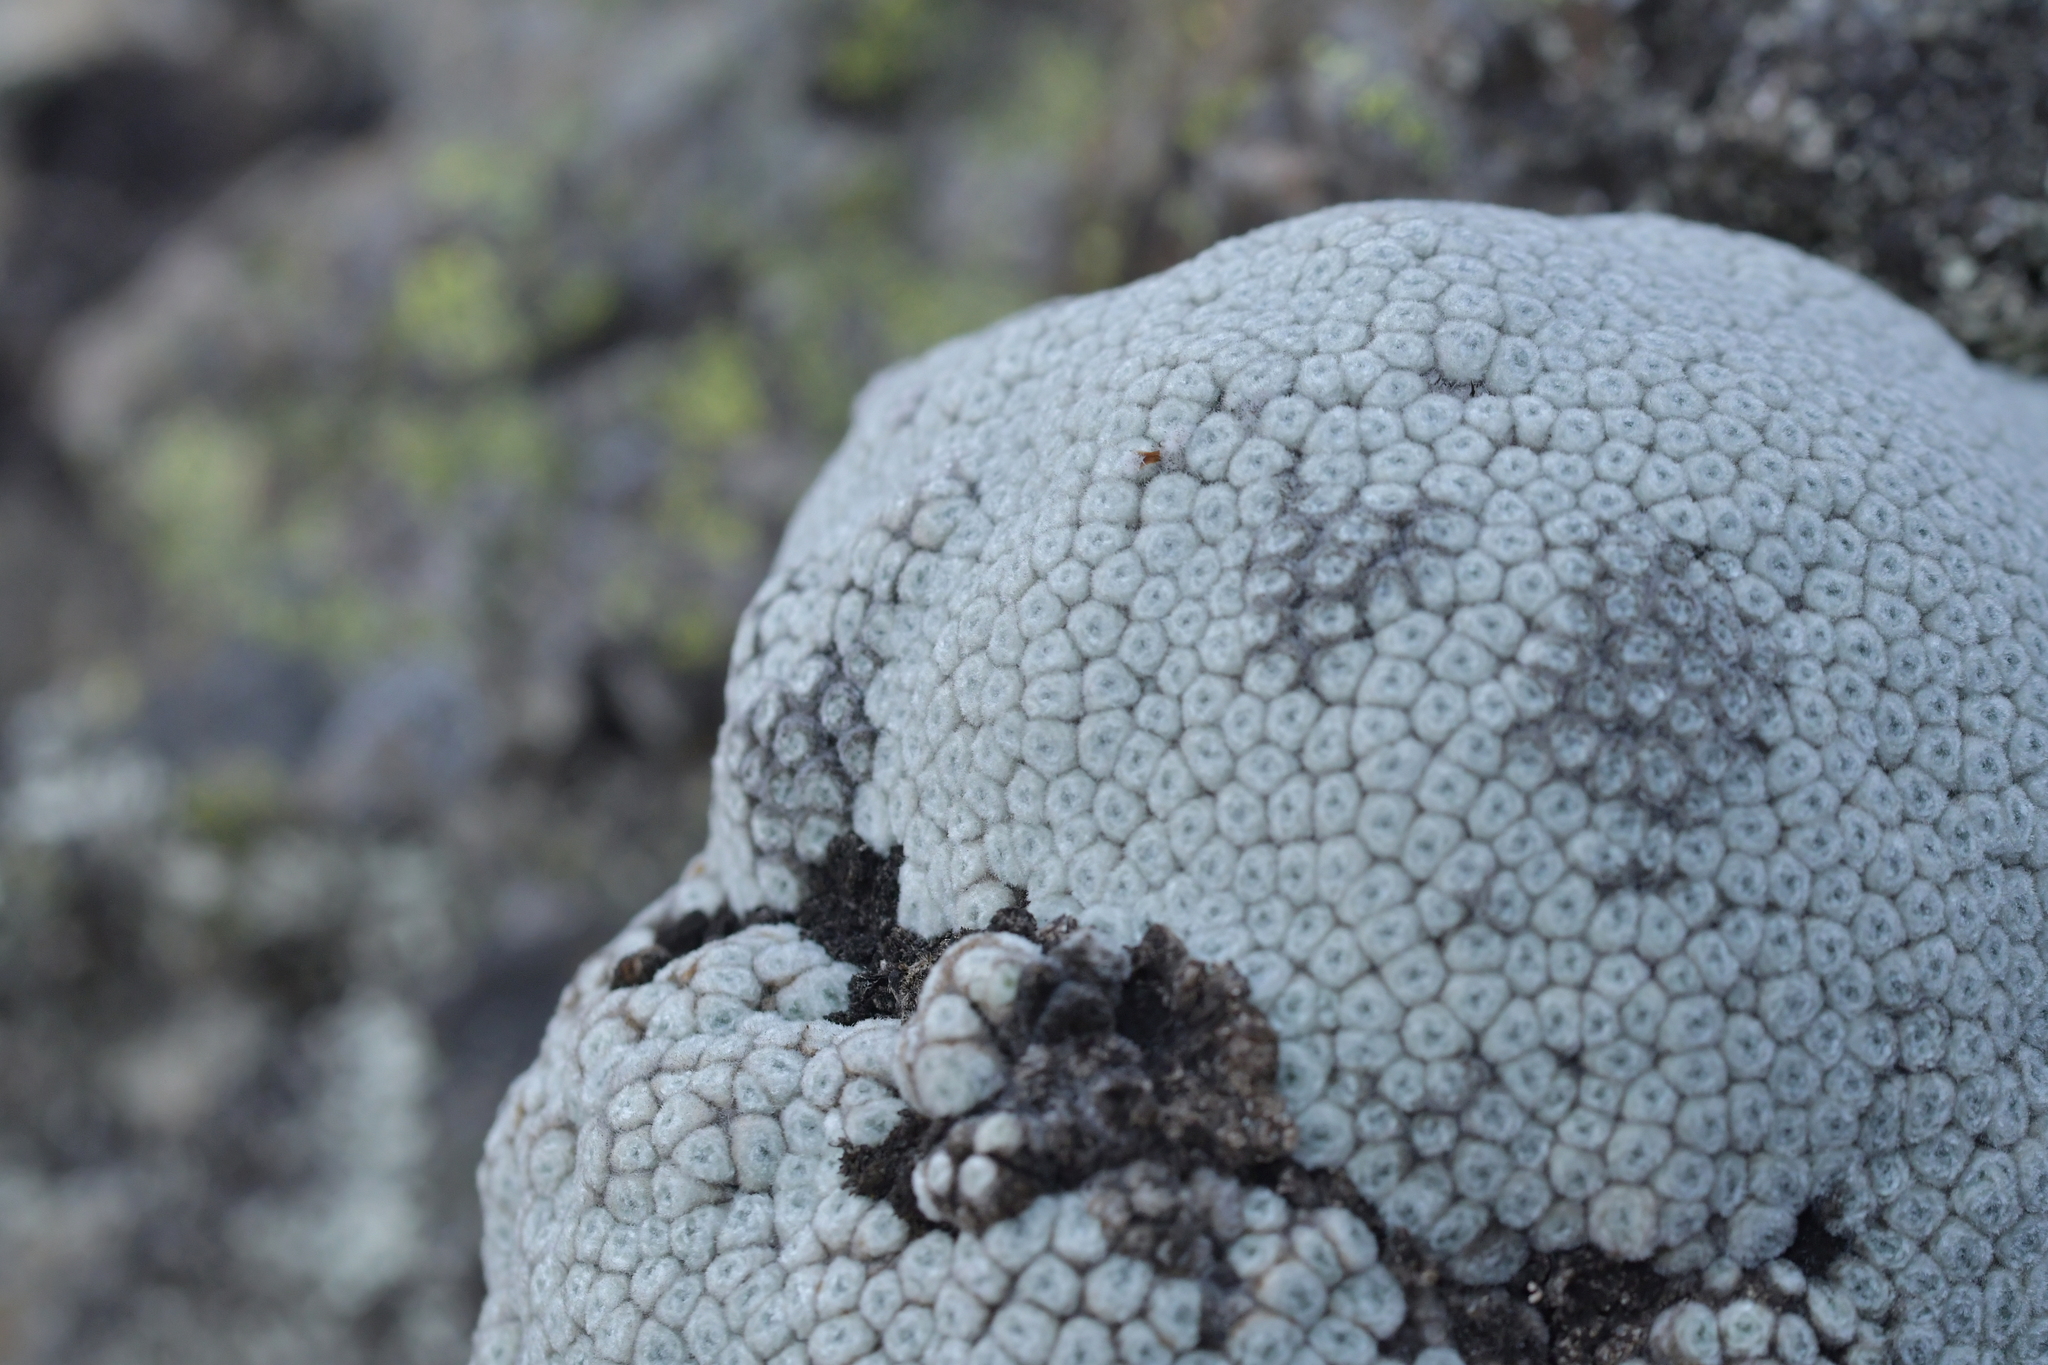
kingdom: Plantae
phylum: Tracheophyta
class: Magnoliopsida
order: Asterales
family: Asteraceae
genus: Raoulia
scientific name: Raoulia eximia
